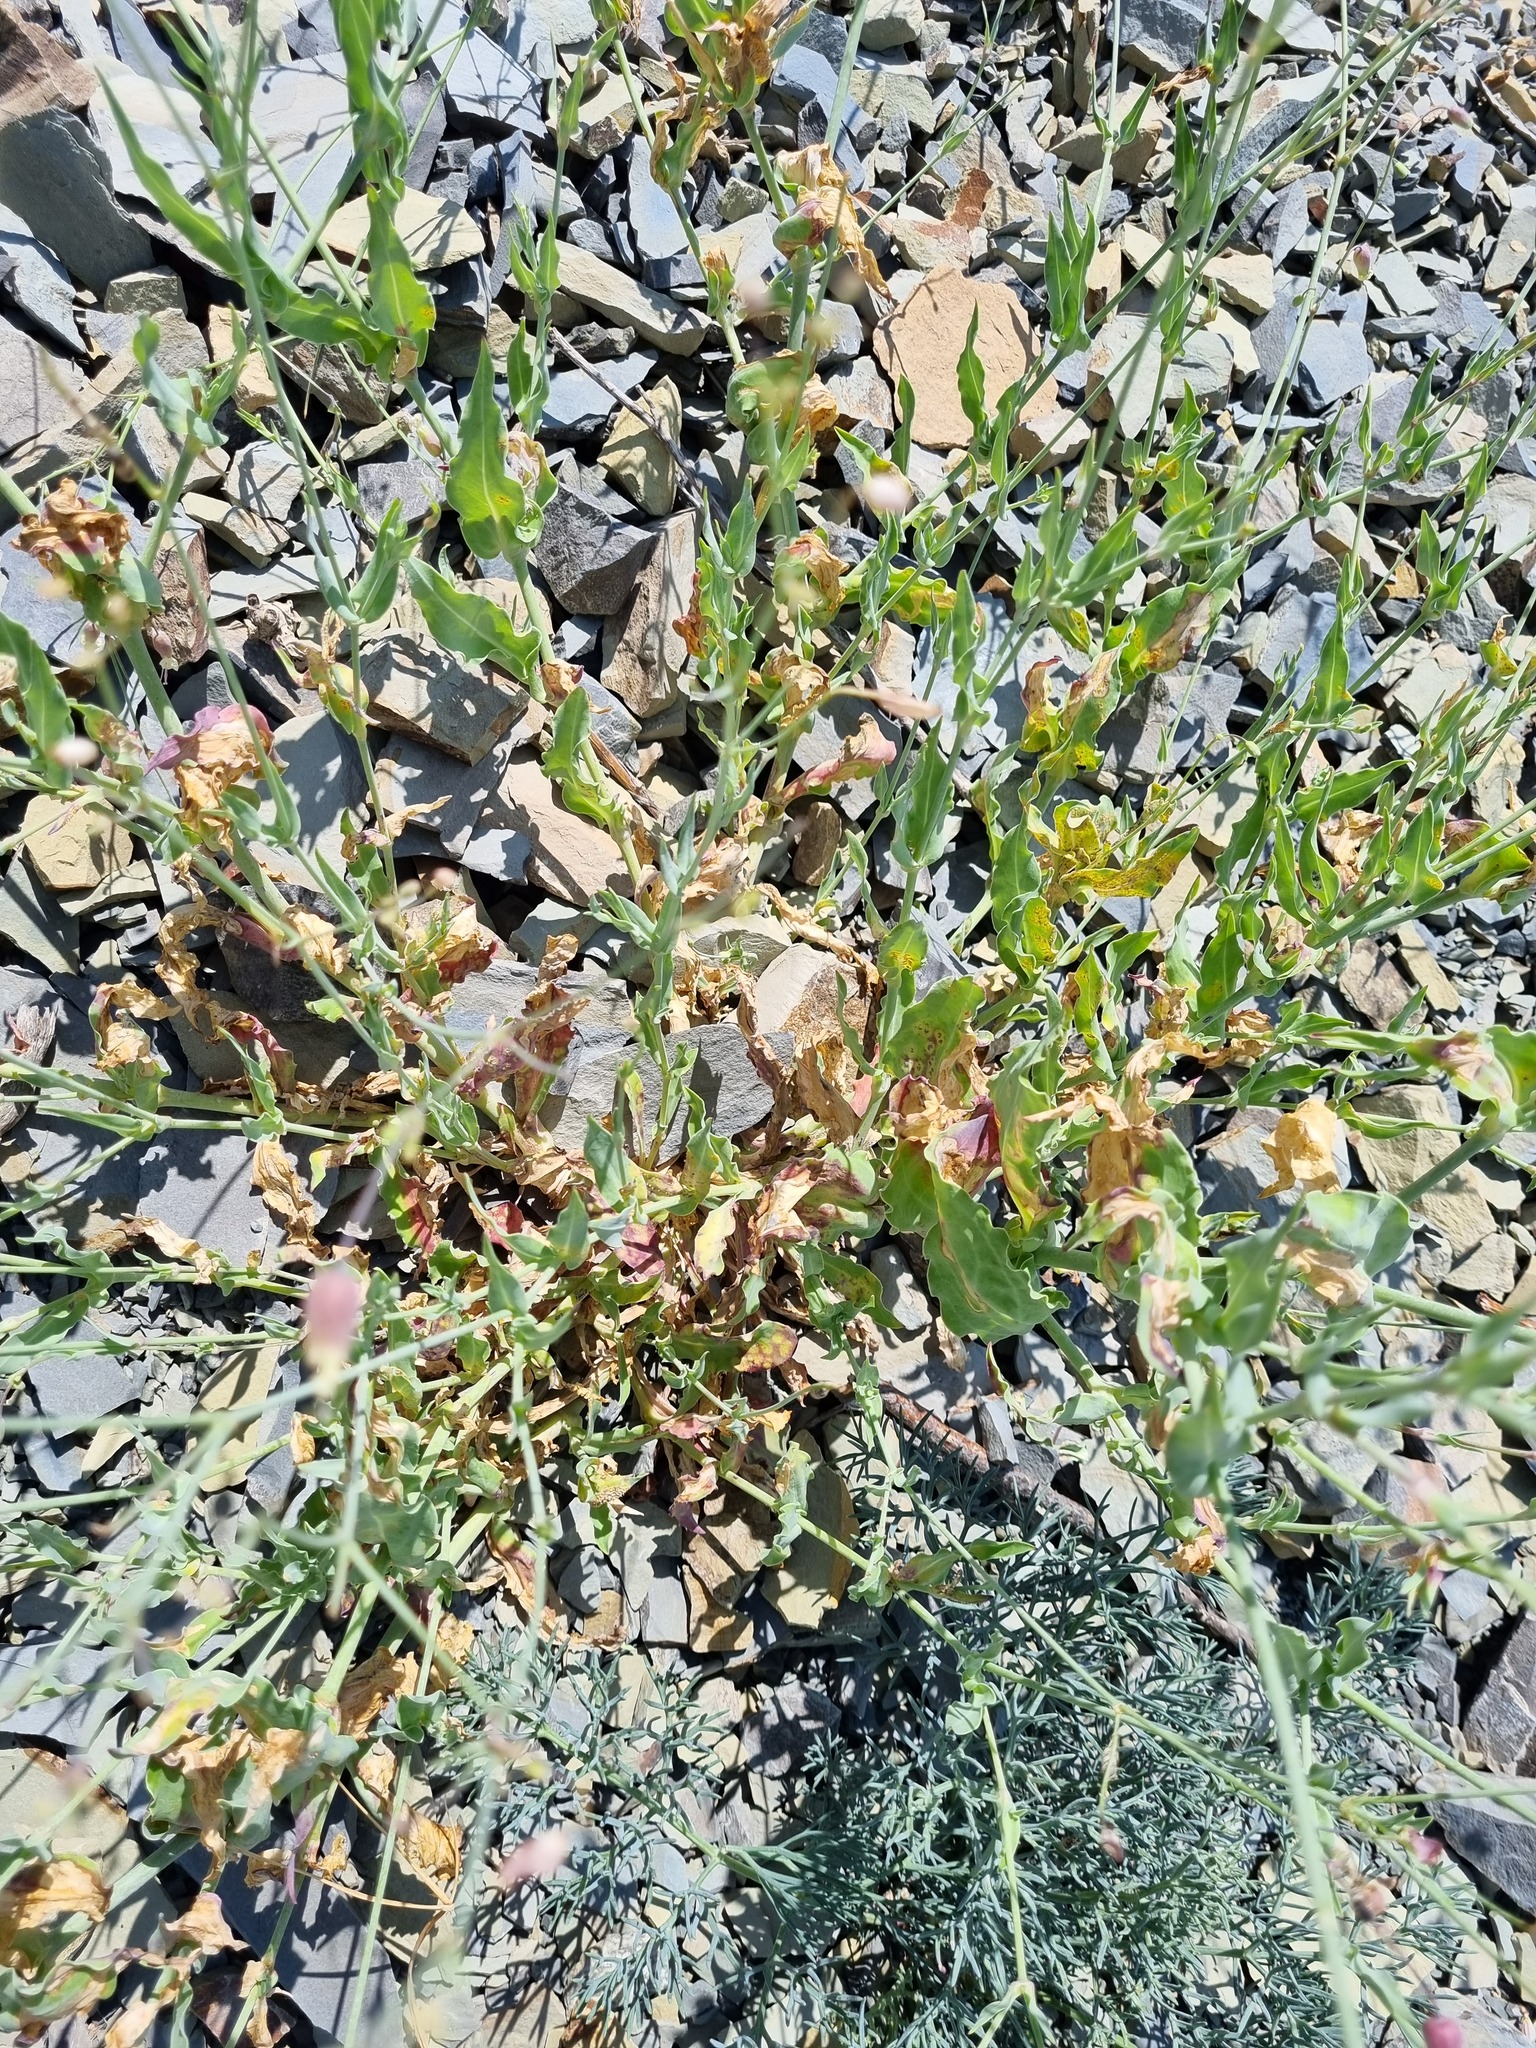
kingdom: Plantae
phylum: Tracheophyta
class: Magnoliopsida
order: Caryophyllales
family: Caryophyllaceae
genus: Silene
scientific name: Silene crispata
